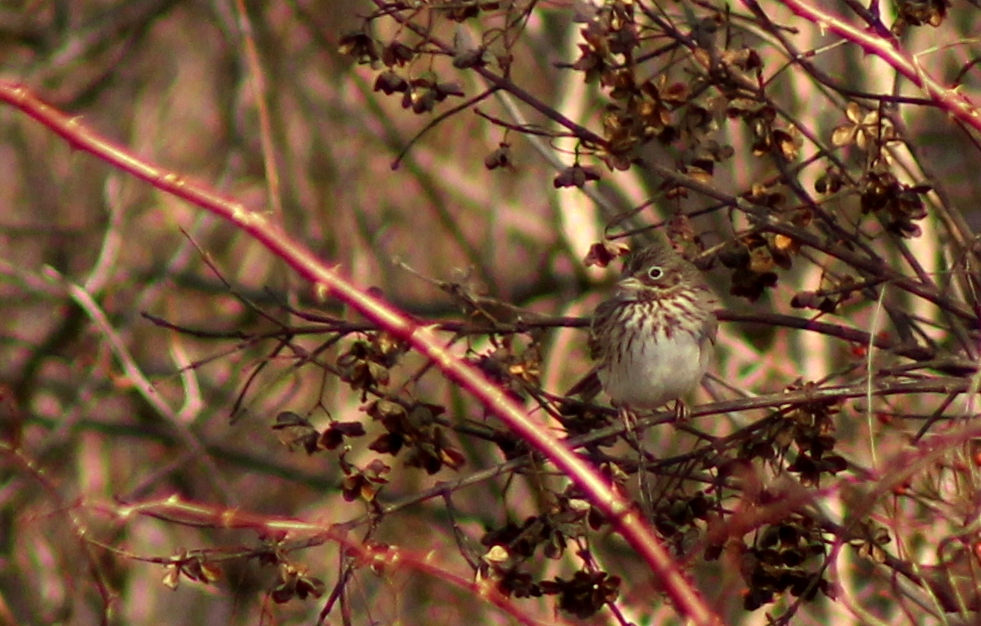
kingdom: Animalia
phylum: Chordata
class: Aves
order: Passeriformes
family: Passerellidae
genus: Pooecetes
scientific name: Pooecetes gramineus
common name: Vesper sparrow
